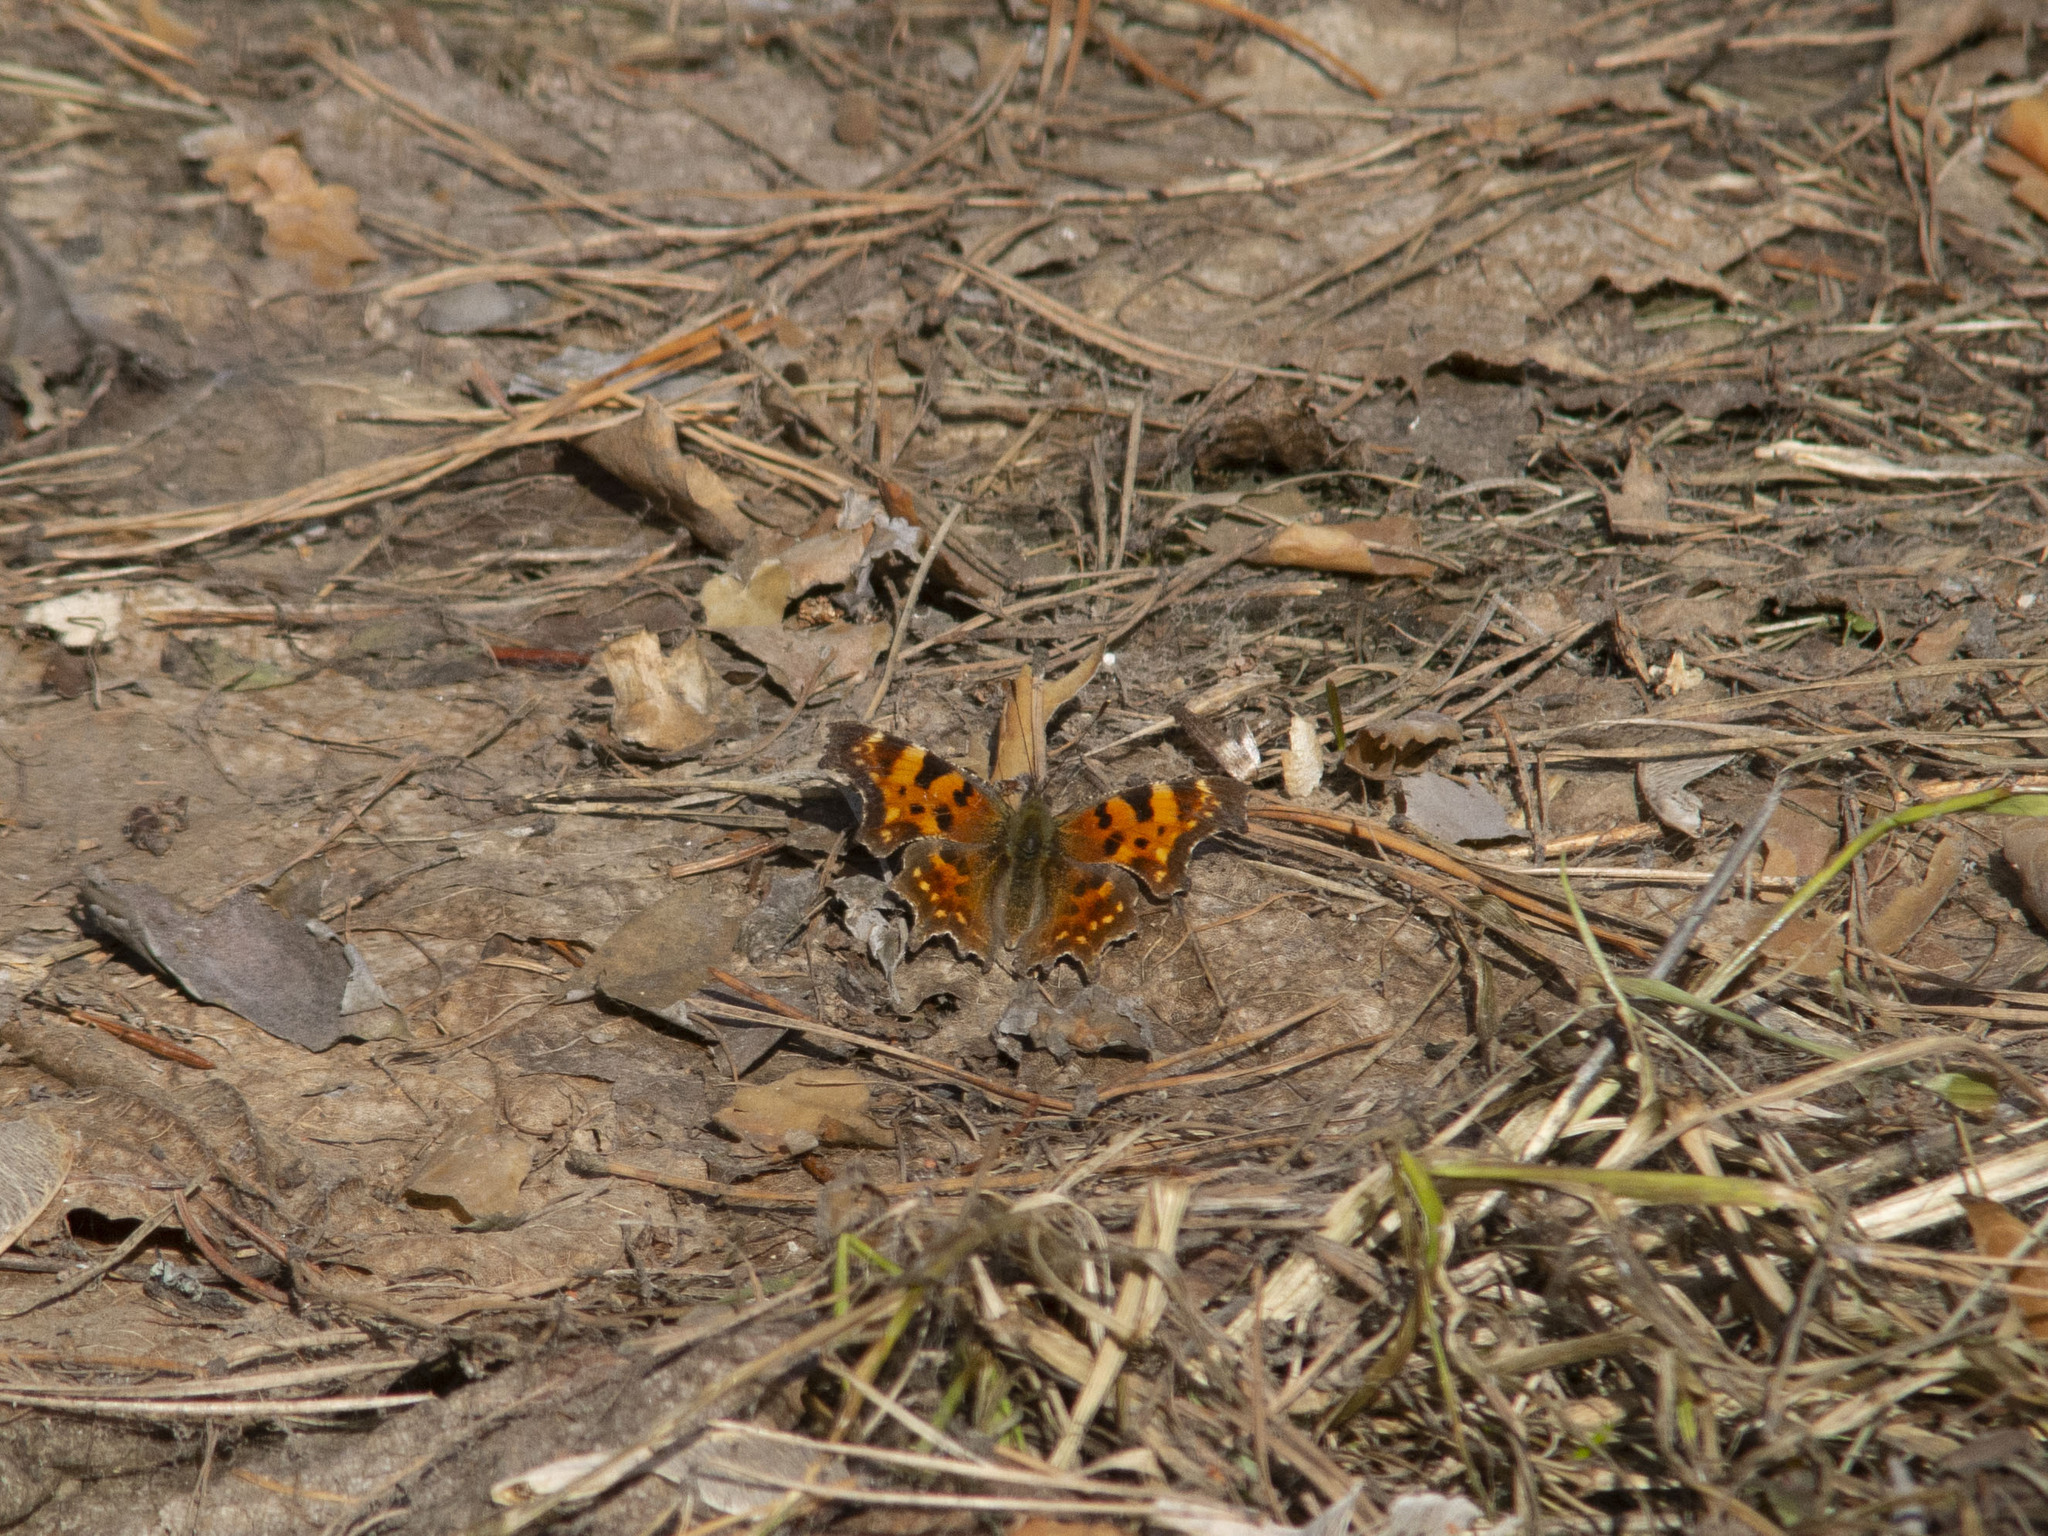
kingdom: Animalia
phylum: Arthropoda
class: Insecta
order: Lepidoptera
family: Nymphalidae
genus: Polygonia
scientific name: Polygonia c-album
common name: Comma
